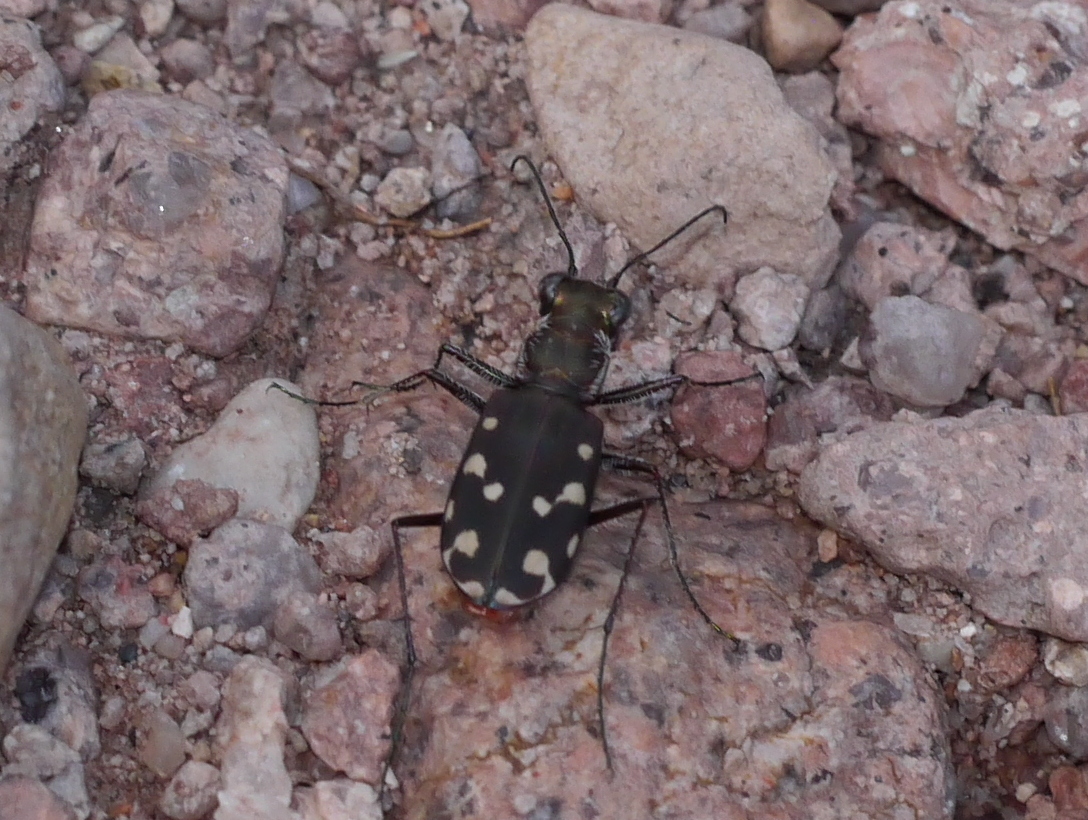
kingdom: Animalia
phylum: Arthropoda
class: Insecta
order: Coleoptera
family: Carabidae
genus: Cicindela
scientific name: Cicindela sedecimpunctata
